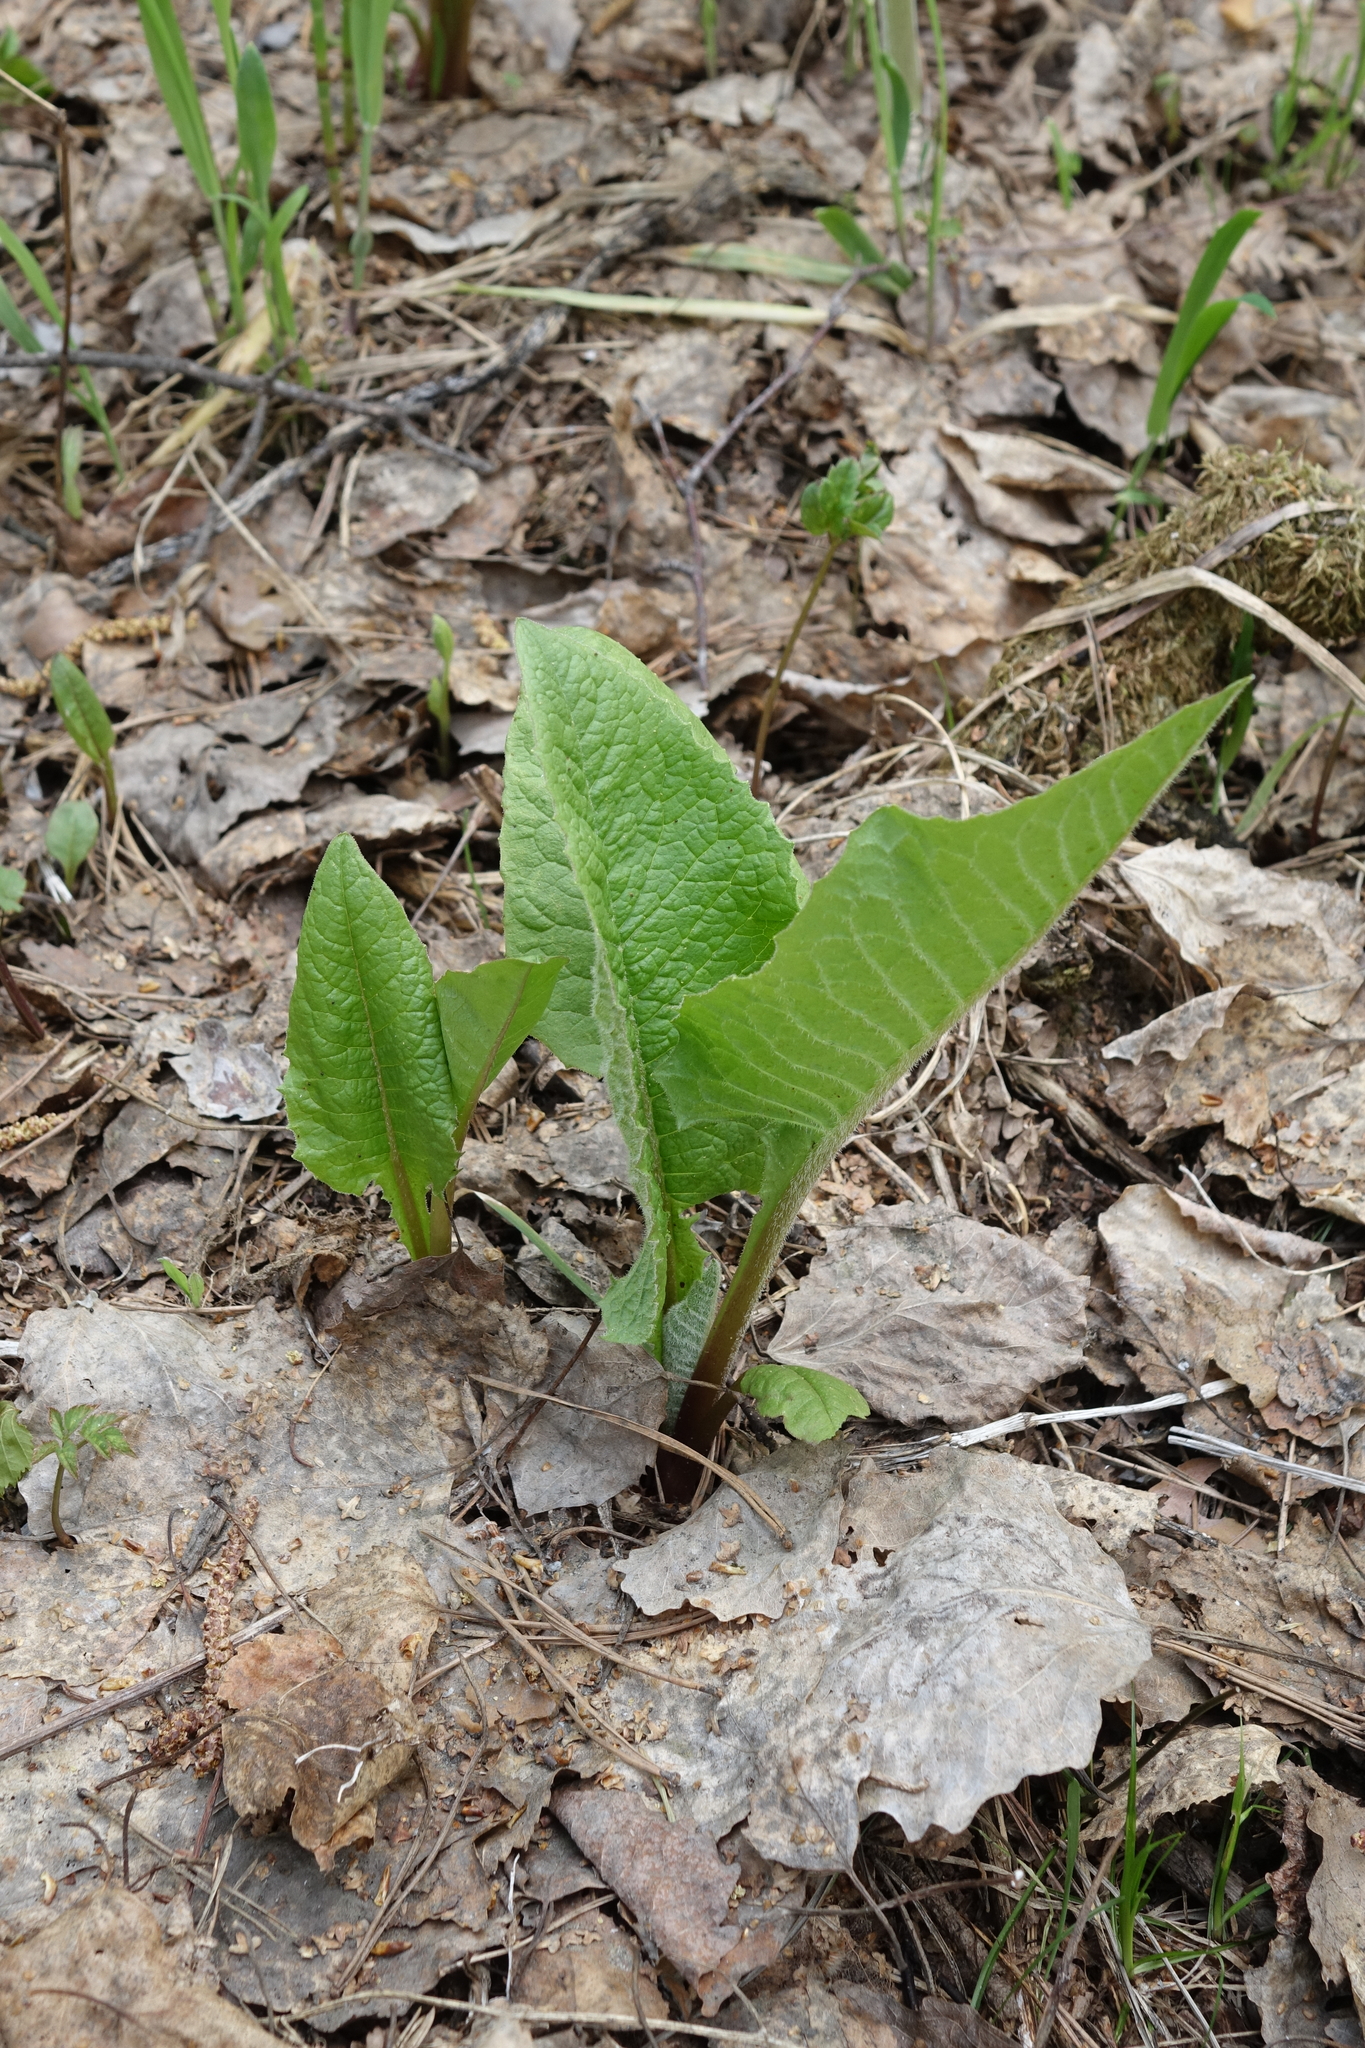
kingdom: Plantae
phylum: Tracheophyta
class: Magnoliopsida
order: Asterales
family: Asteraceae
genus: Crepis
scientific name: Crepis sibirica
